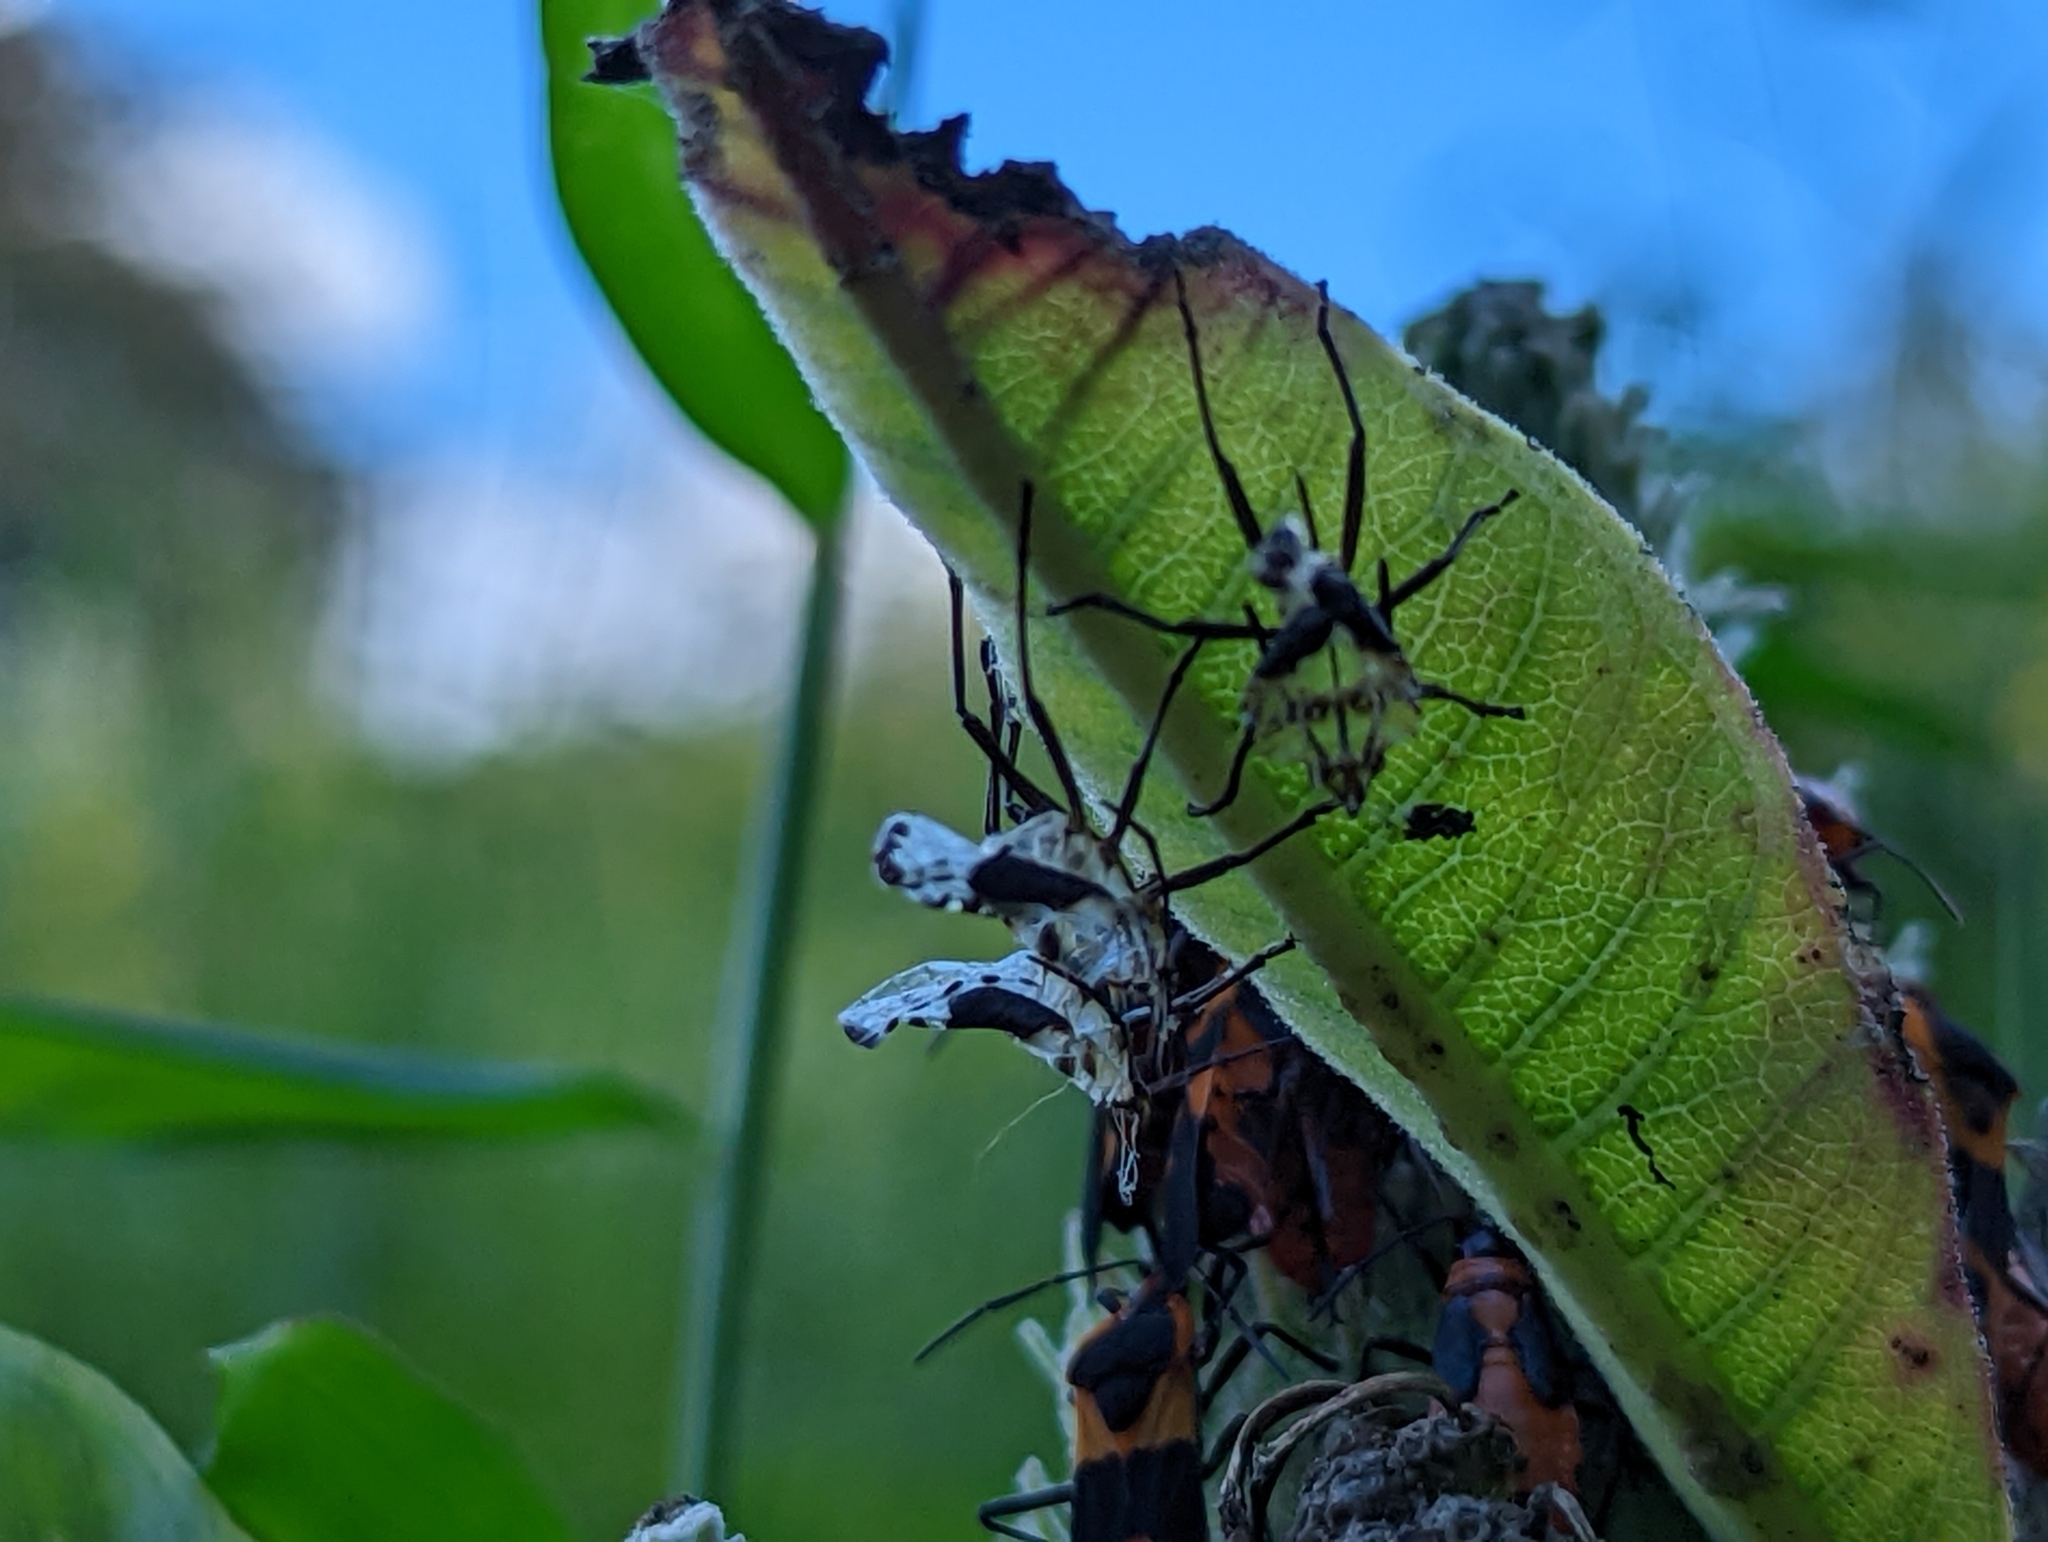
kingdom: Animalia
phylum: Arthropoda
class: Insecta
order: Hemiptera
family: Lygaeidae
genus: Oncopeltus
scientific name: Oncopeltus fasciatus
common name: Large milkweed bug
